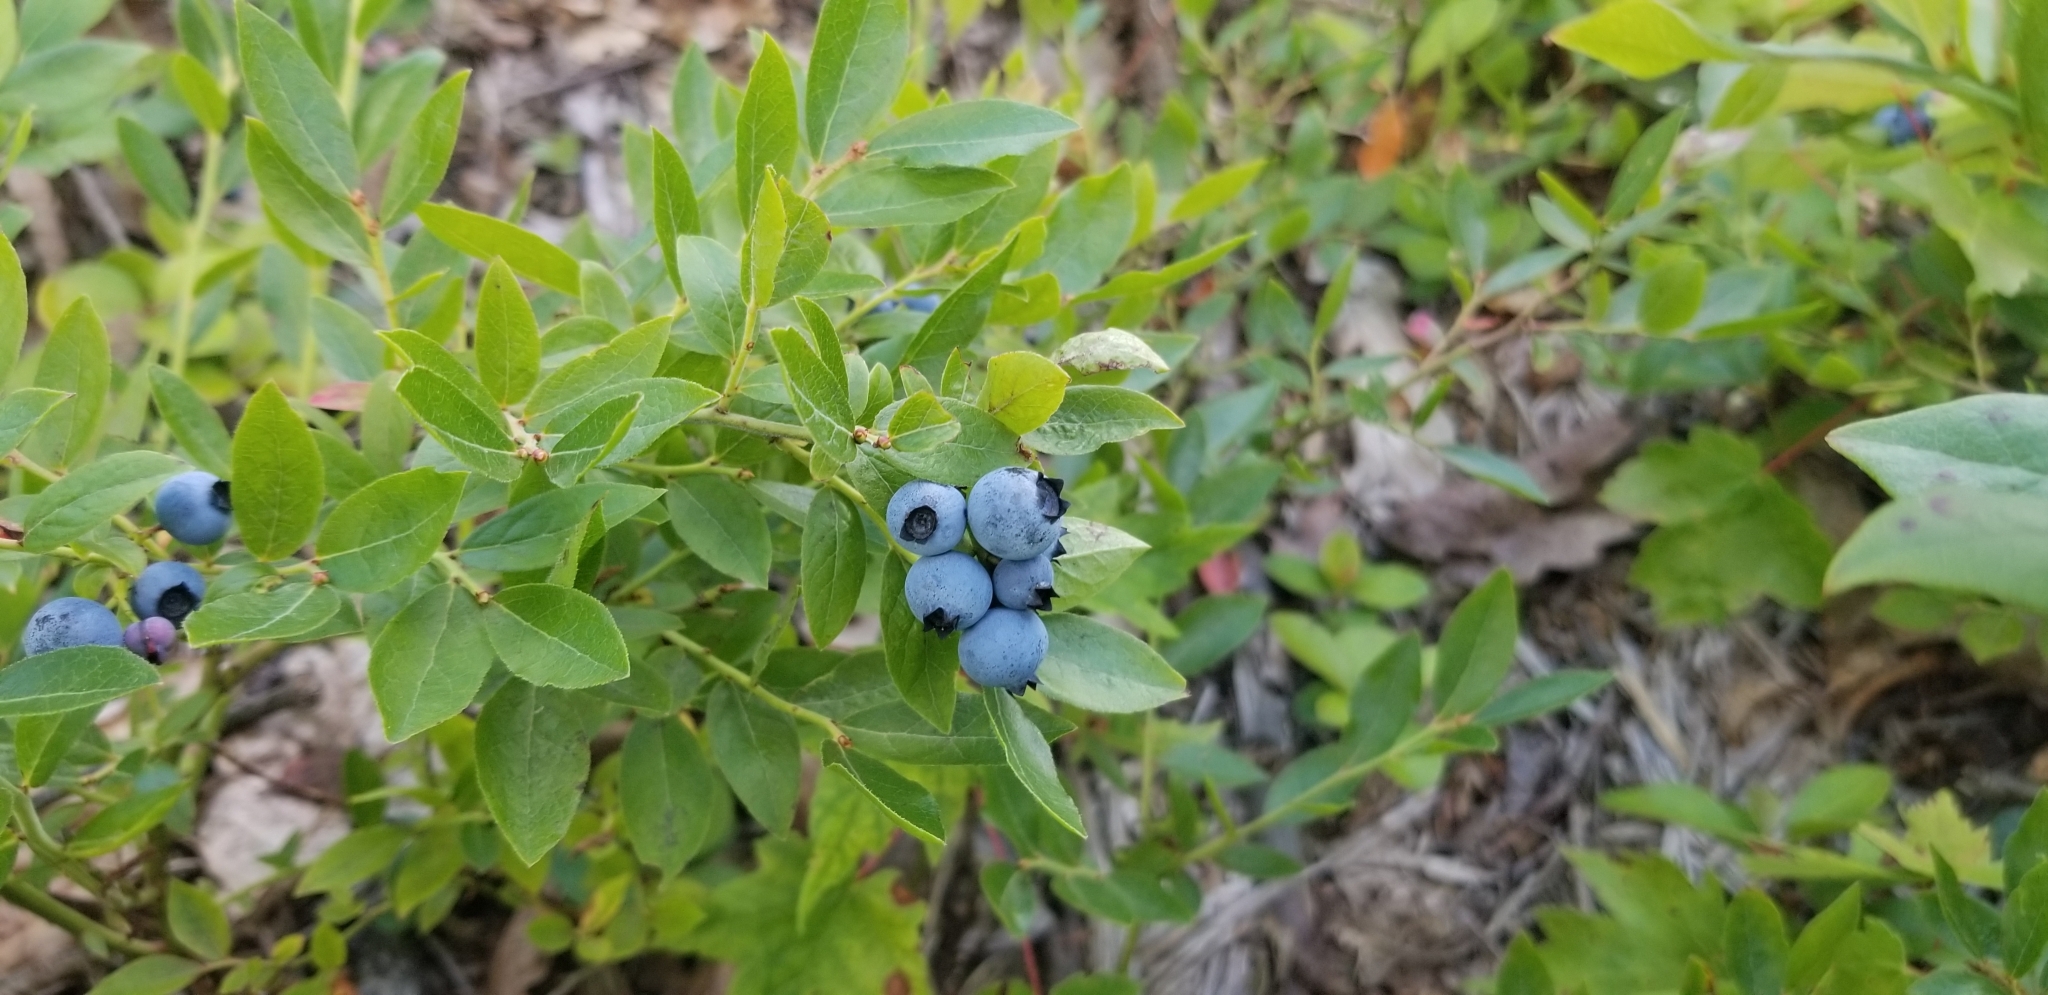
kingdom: Plantae
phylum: Tracheophyta
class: Magnoliopsida
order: Ericales
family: Ericaceae
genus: Vaccinium
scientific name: Vaccinium angustifolium
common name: Early lowbush blueberry
